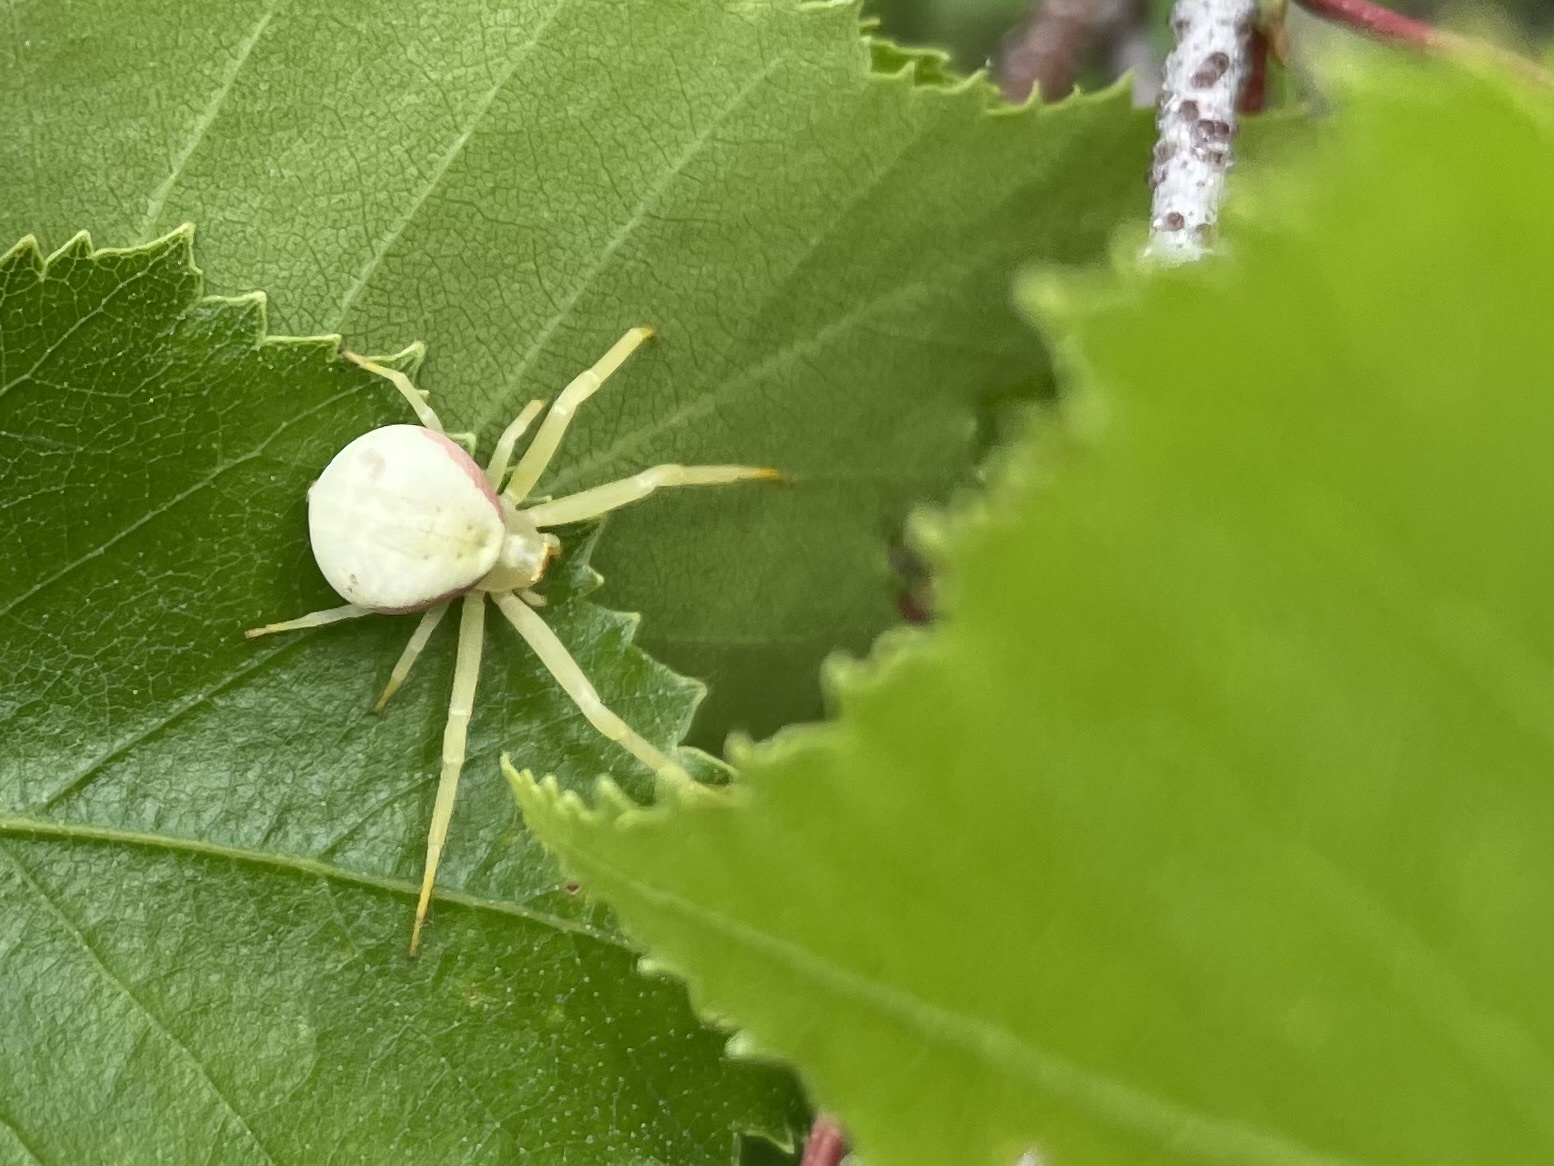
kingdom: Animalia
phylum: Arthropoda
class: Arachnida
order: Araneae
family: Thomisidae
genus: Misumena
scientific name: Misumena vatia
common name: Goldenrod crab spider
